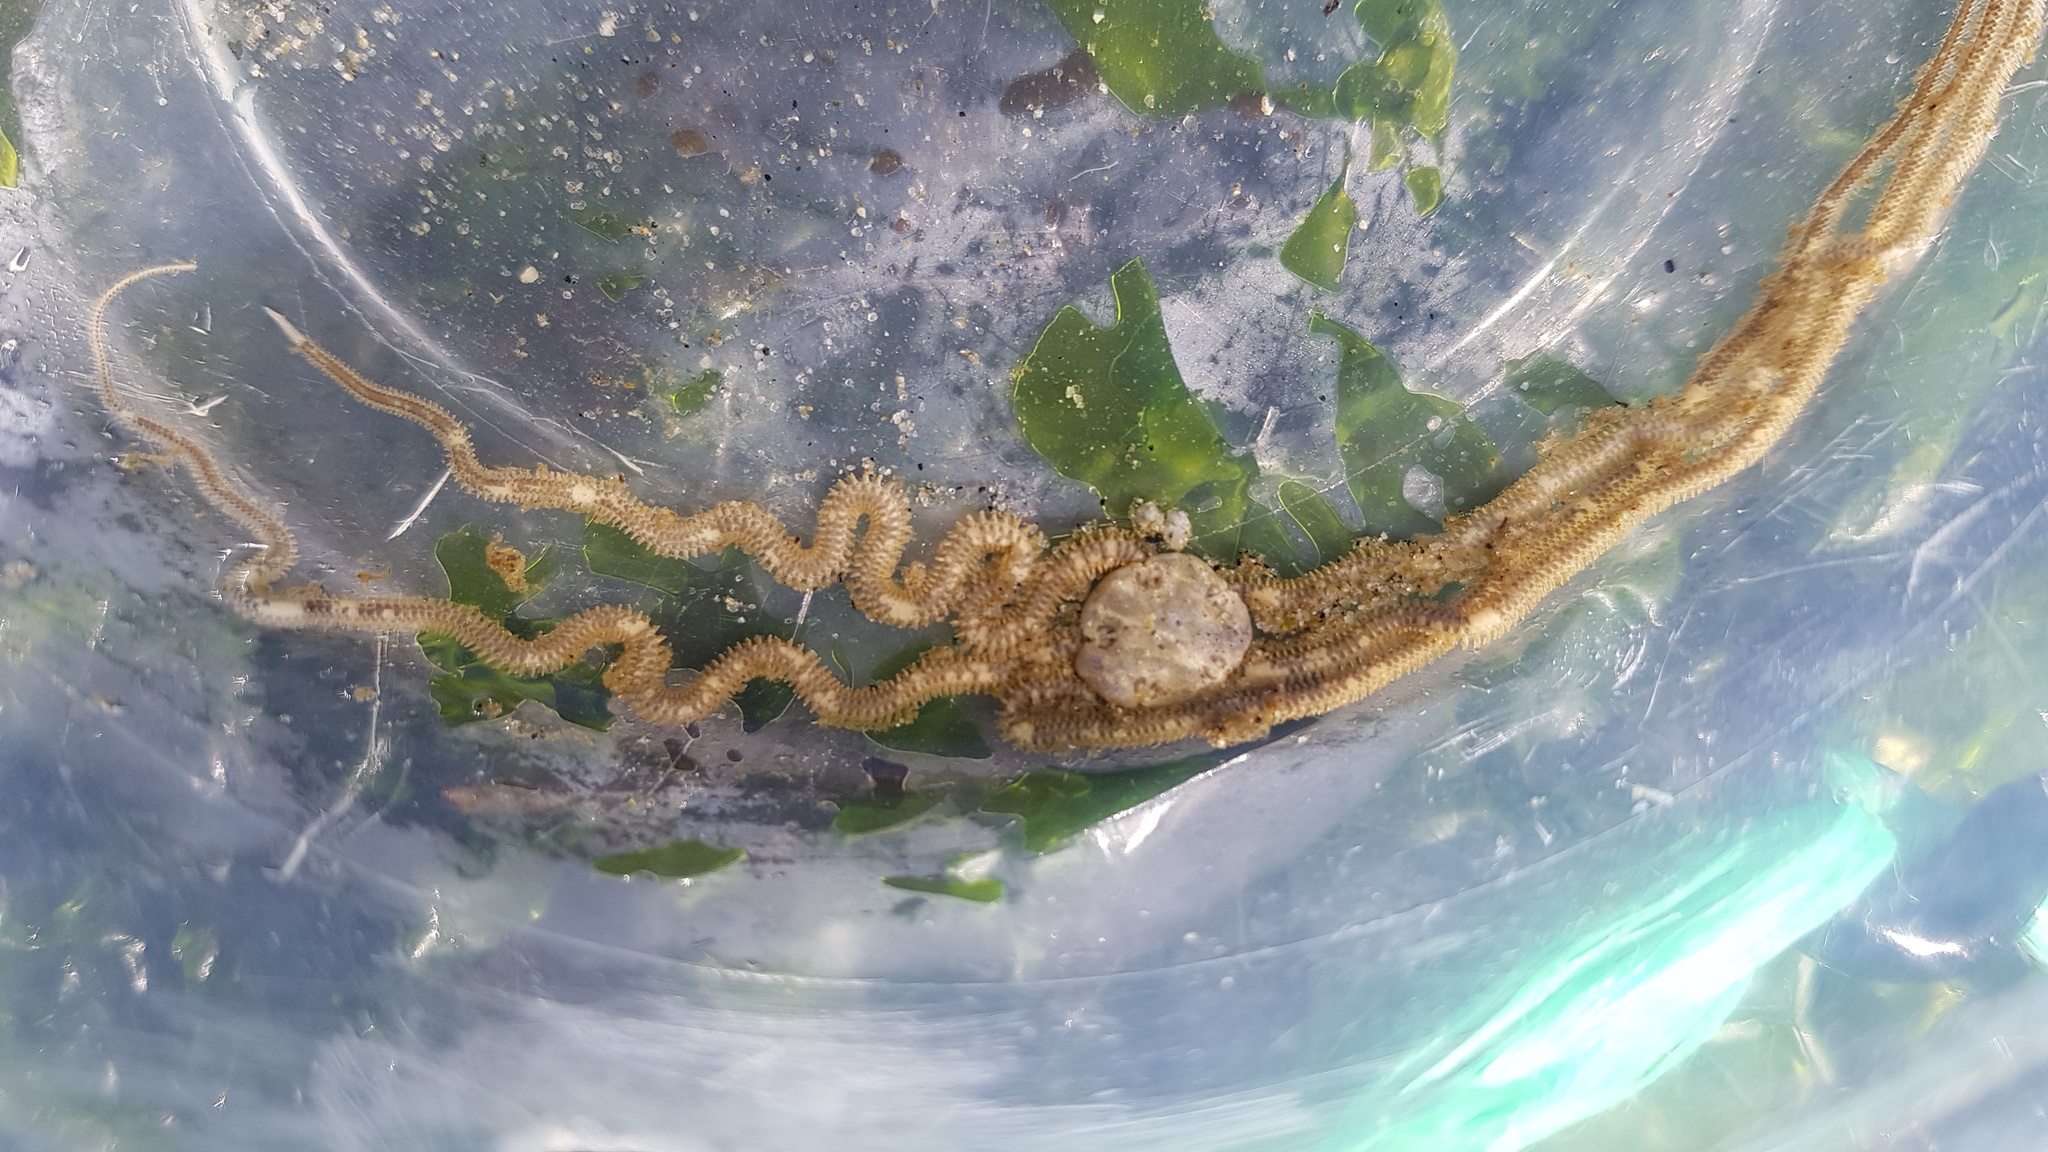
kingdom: Animalia
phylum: Echinodermata
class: Ophiuroidea
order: Amphilepidida
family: Amphiuridae
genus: Amphiodia
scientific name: Amphiodia occidentalis
